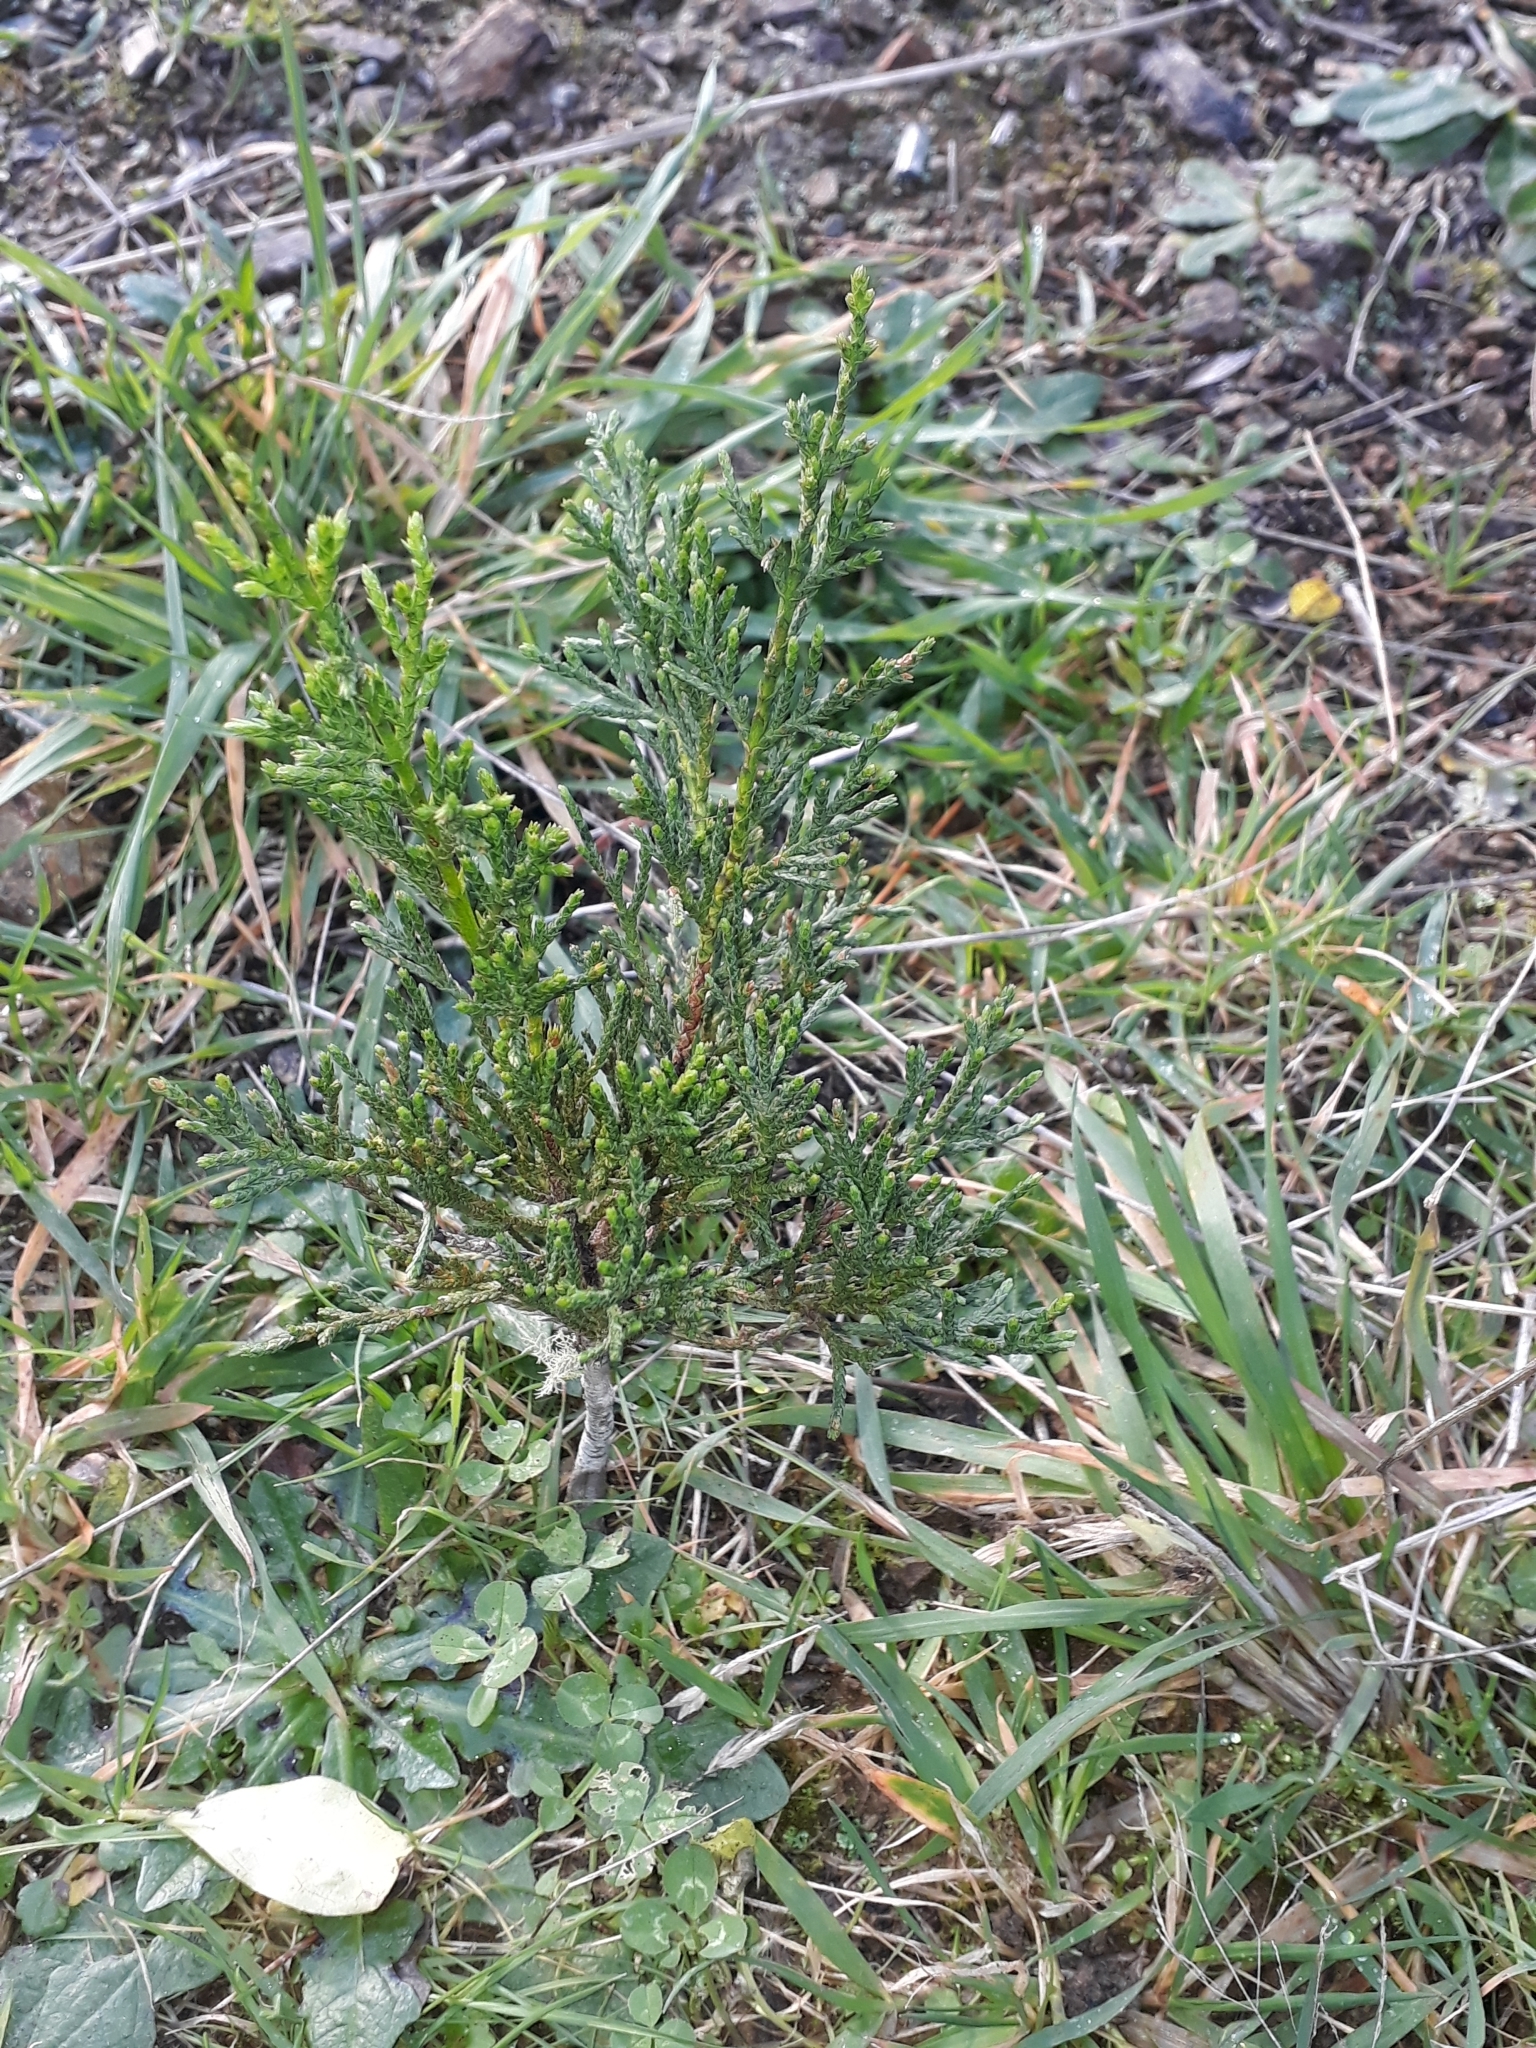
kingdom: Plantae
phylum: Tracheophyta
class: Pinopsida
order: Pinales
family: Cupressaceae
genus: Cupressus
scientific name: Cupressus macrocarpa
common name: Monterey cypress
